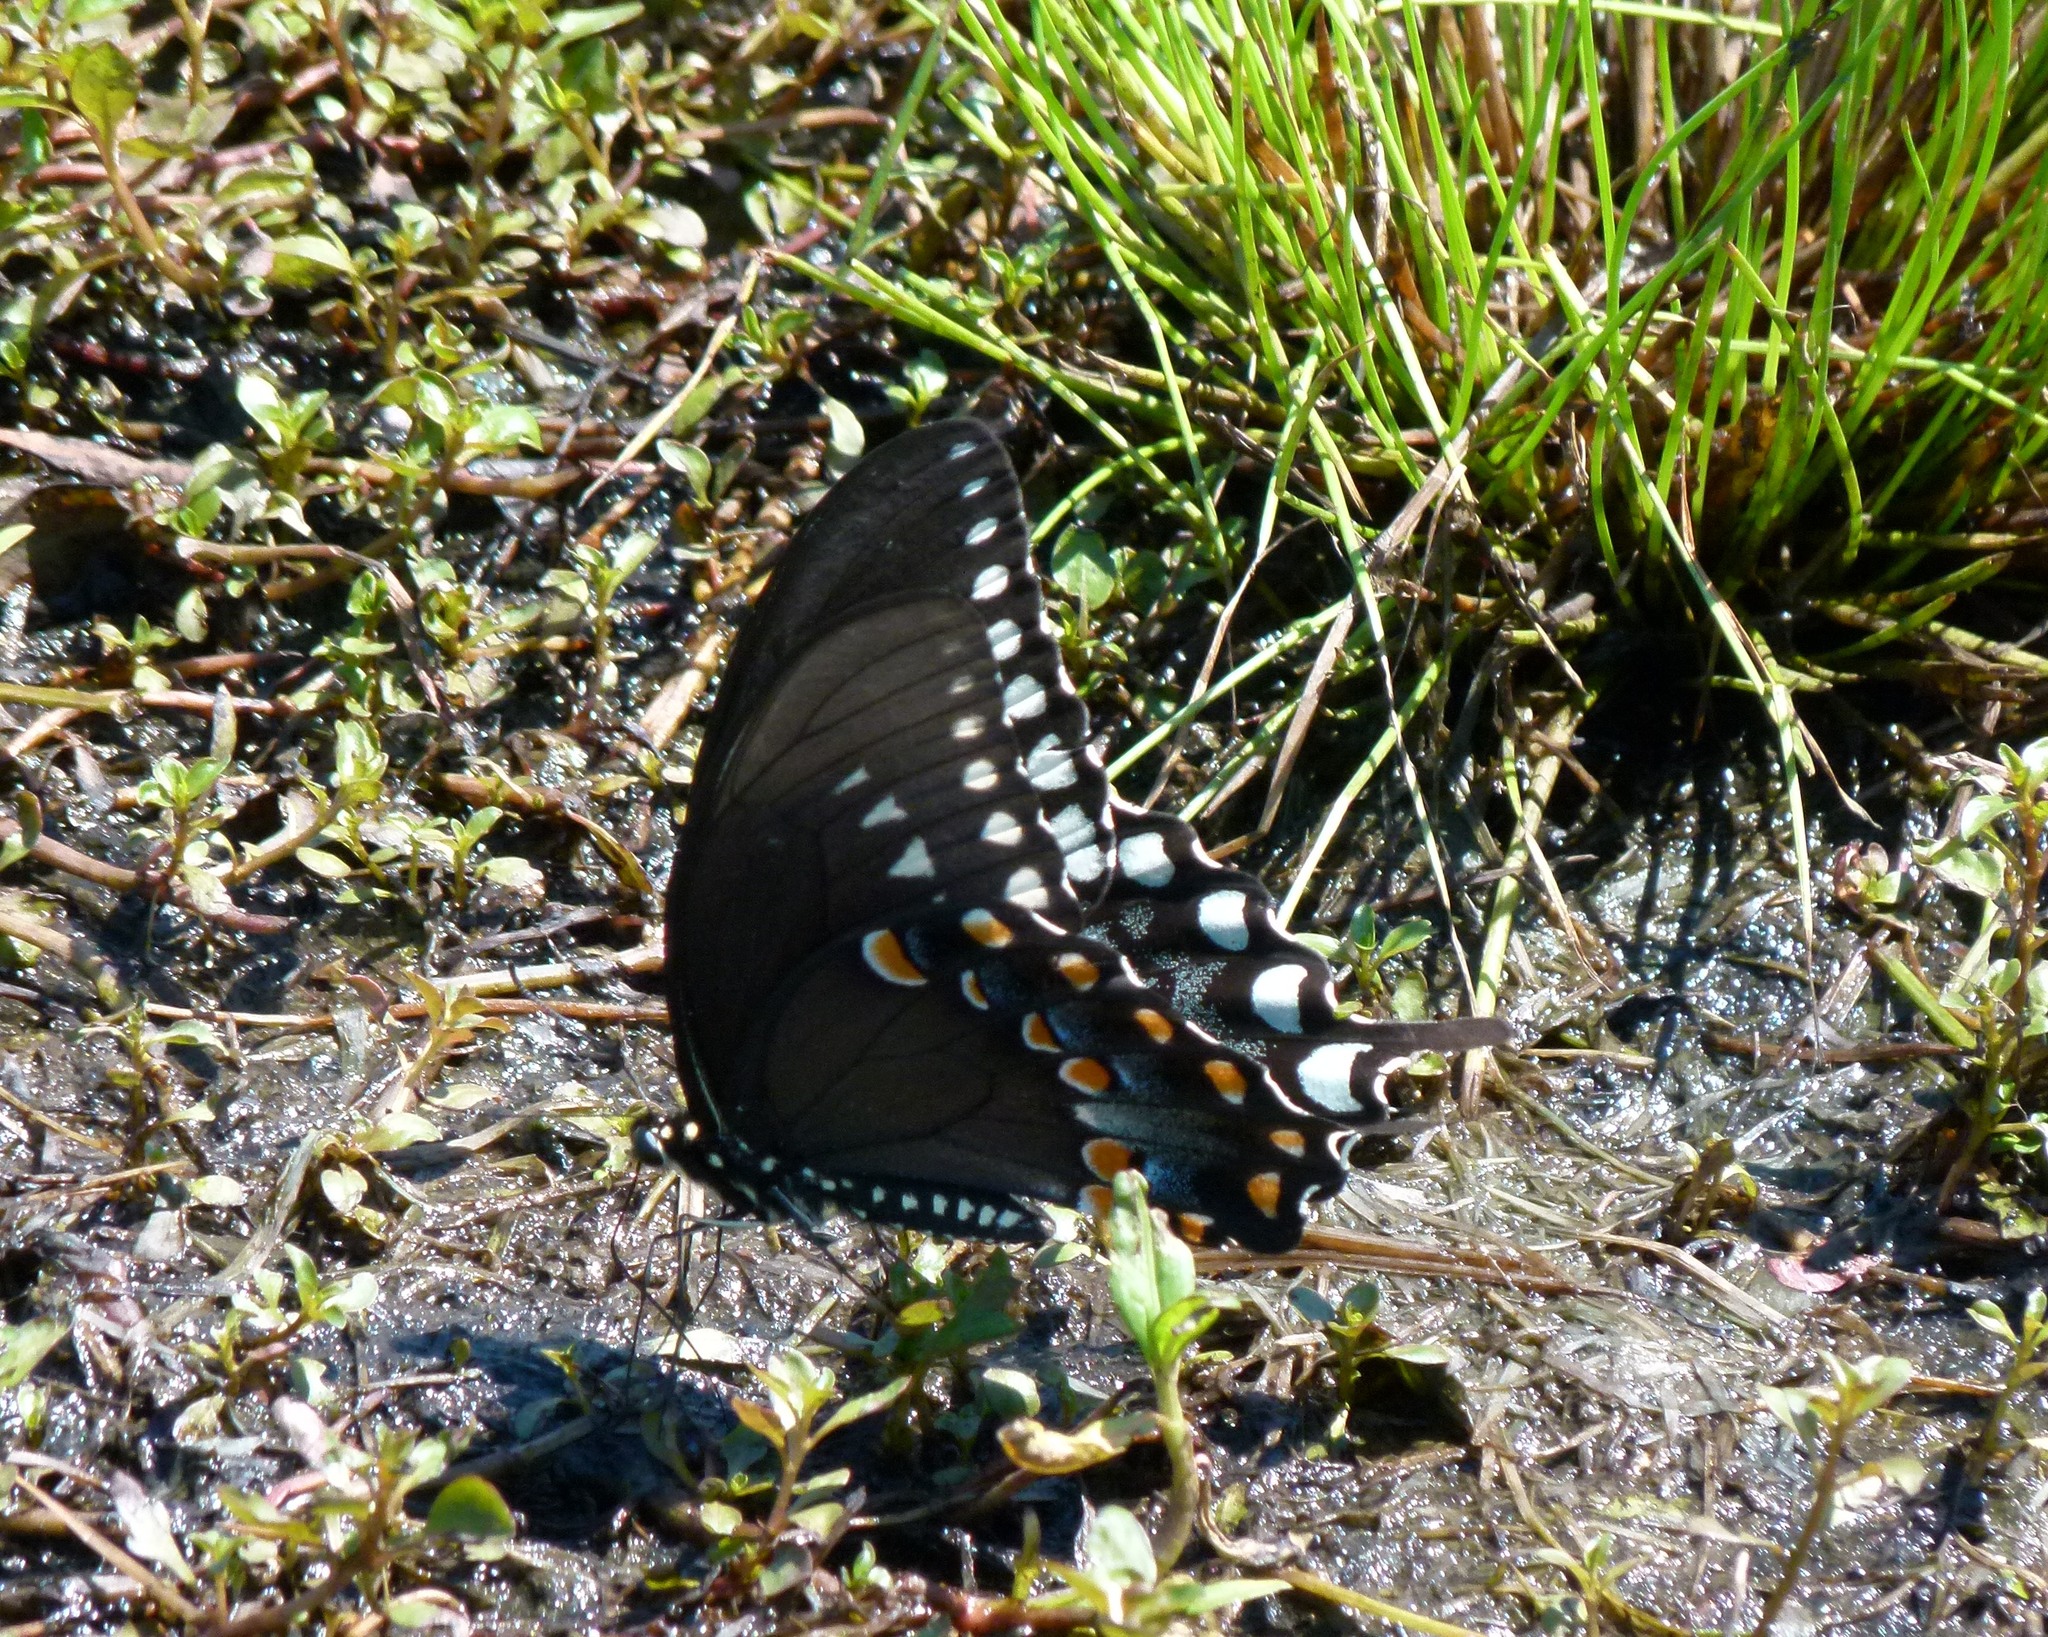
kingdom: Animalia
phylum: Arthropoda
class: Insecta
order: Lepidoptera
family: Papilionidae
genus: Papilio
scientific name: Papilio troilus
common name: Spicebush swallowtail
